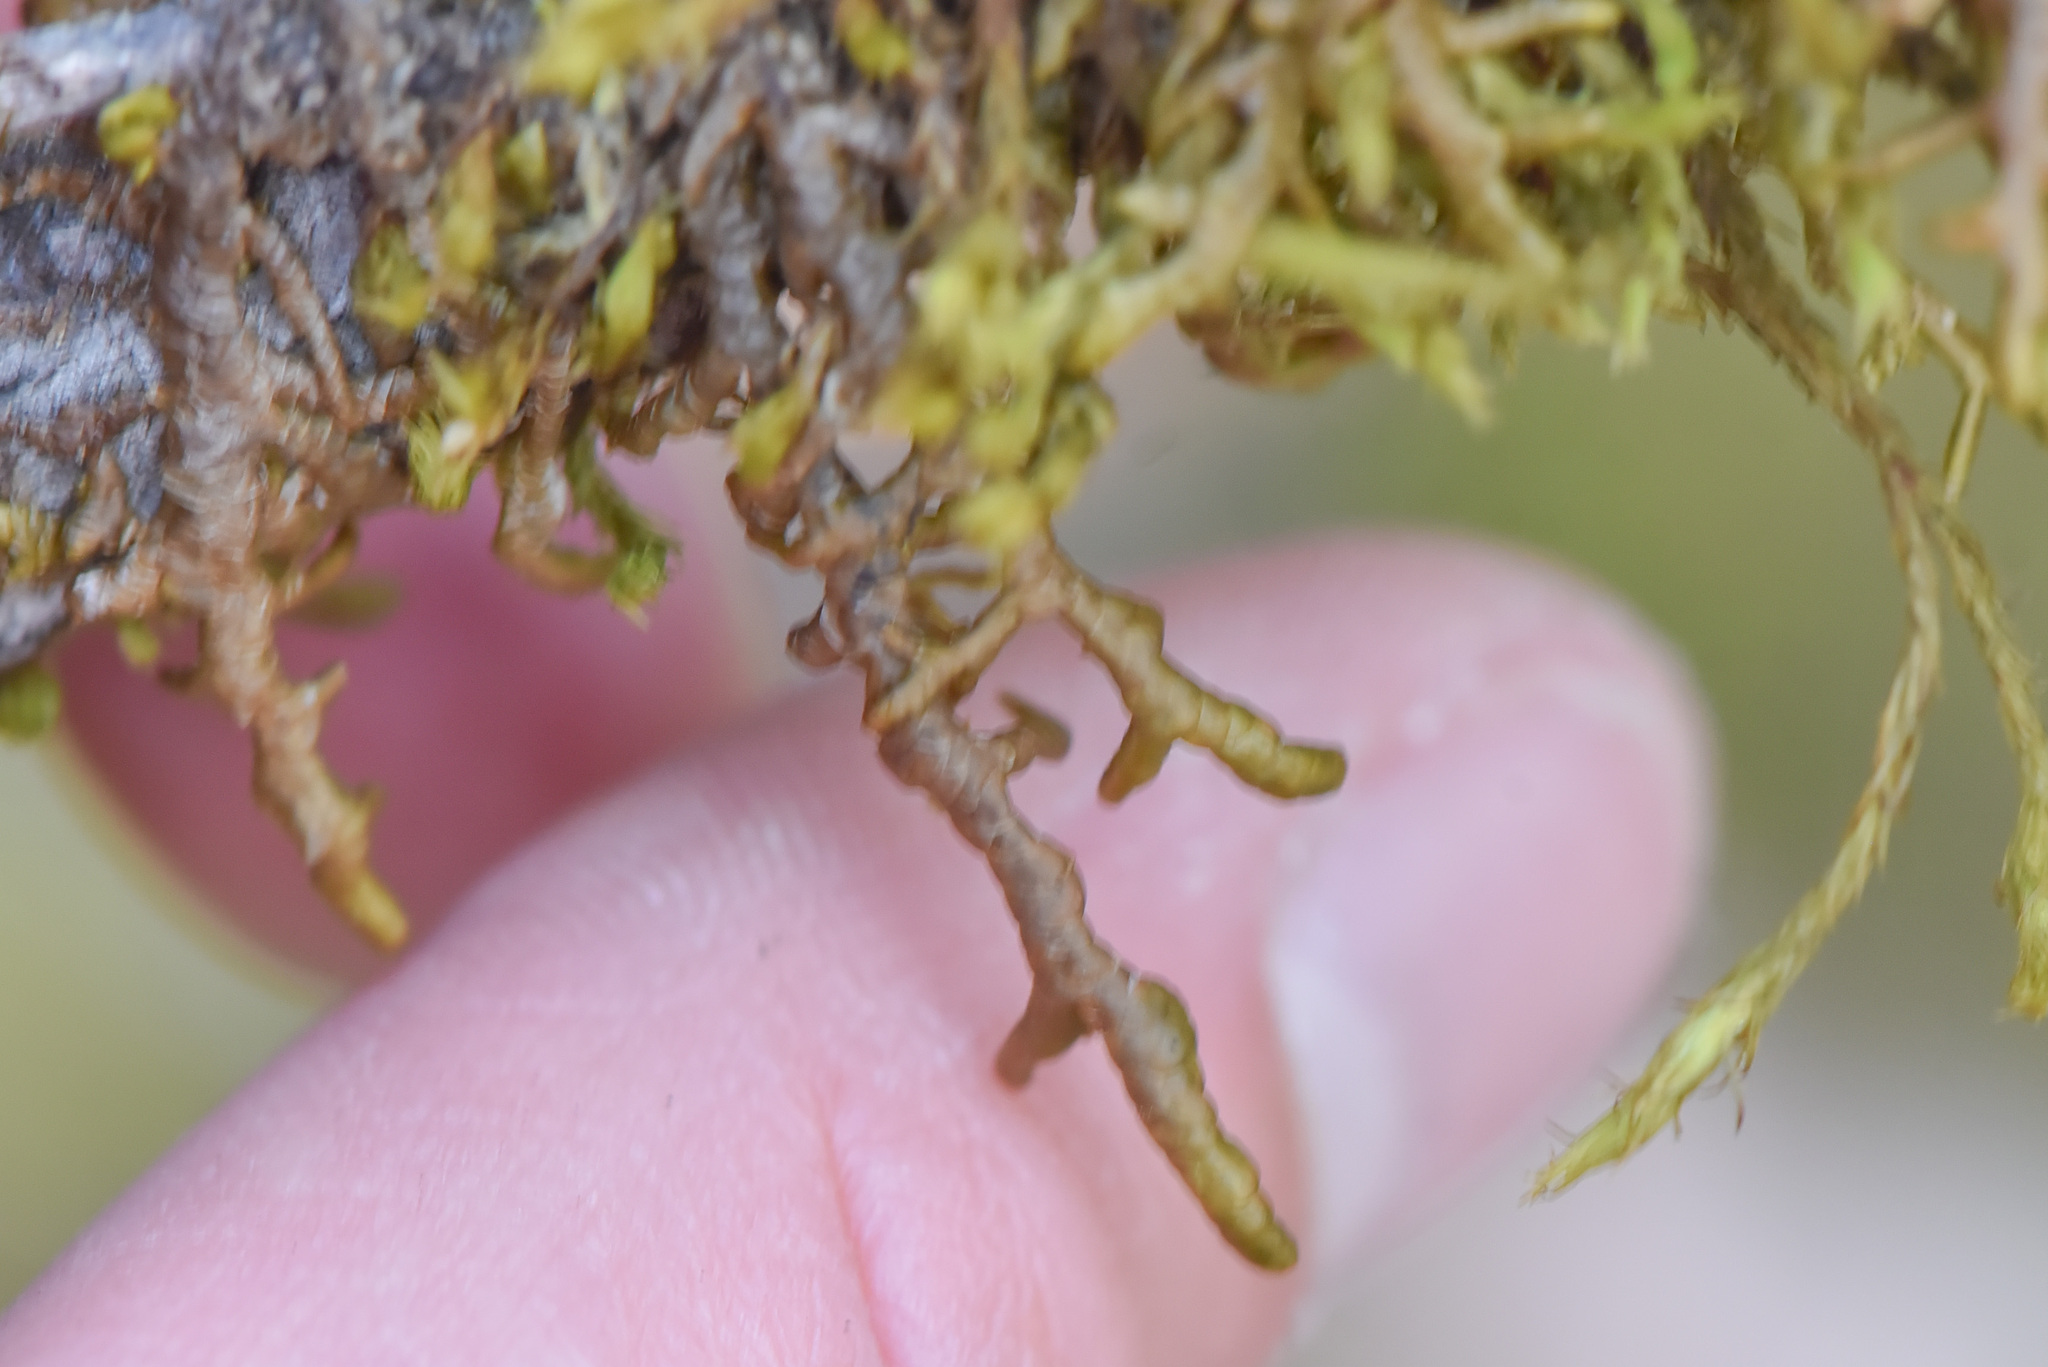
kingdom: Plantae
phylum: Marchantiophyta
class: Jungermanniopsida
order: Porellales
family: Porellaceae
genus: Porella
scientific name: Porella navicularis
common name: Tree ruffle liverwort
